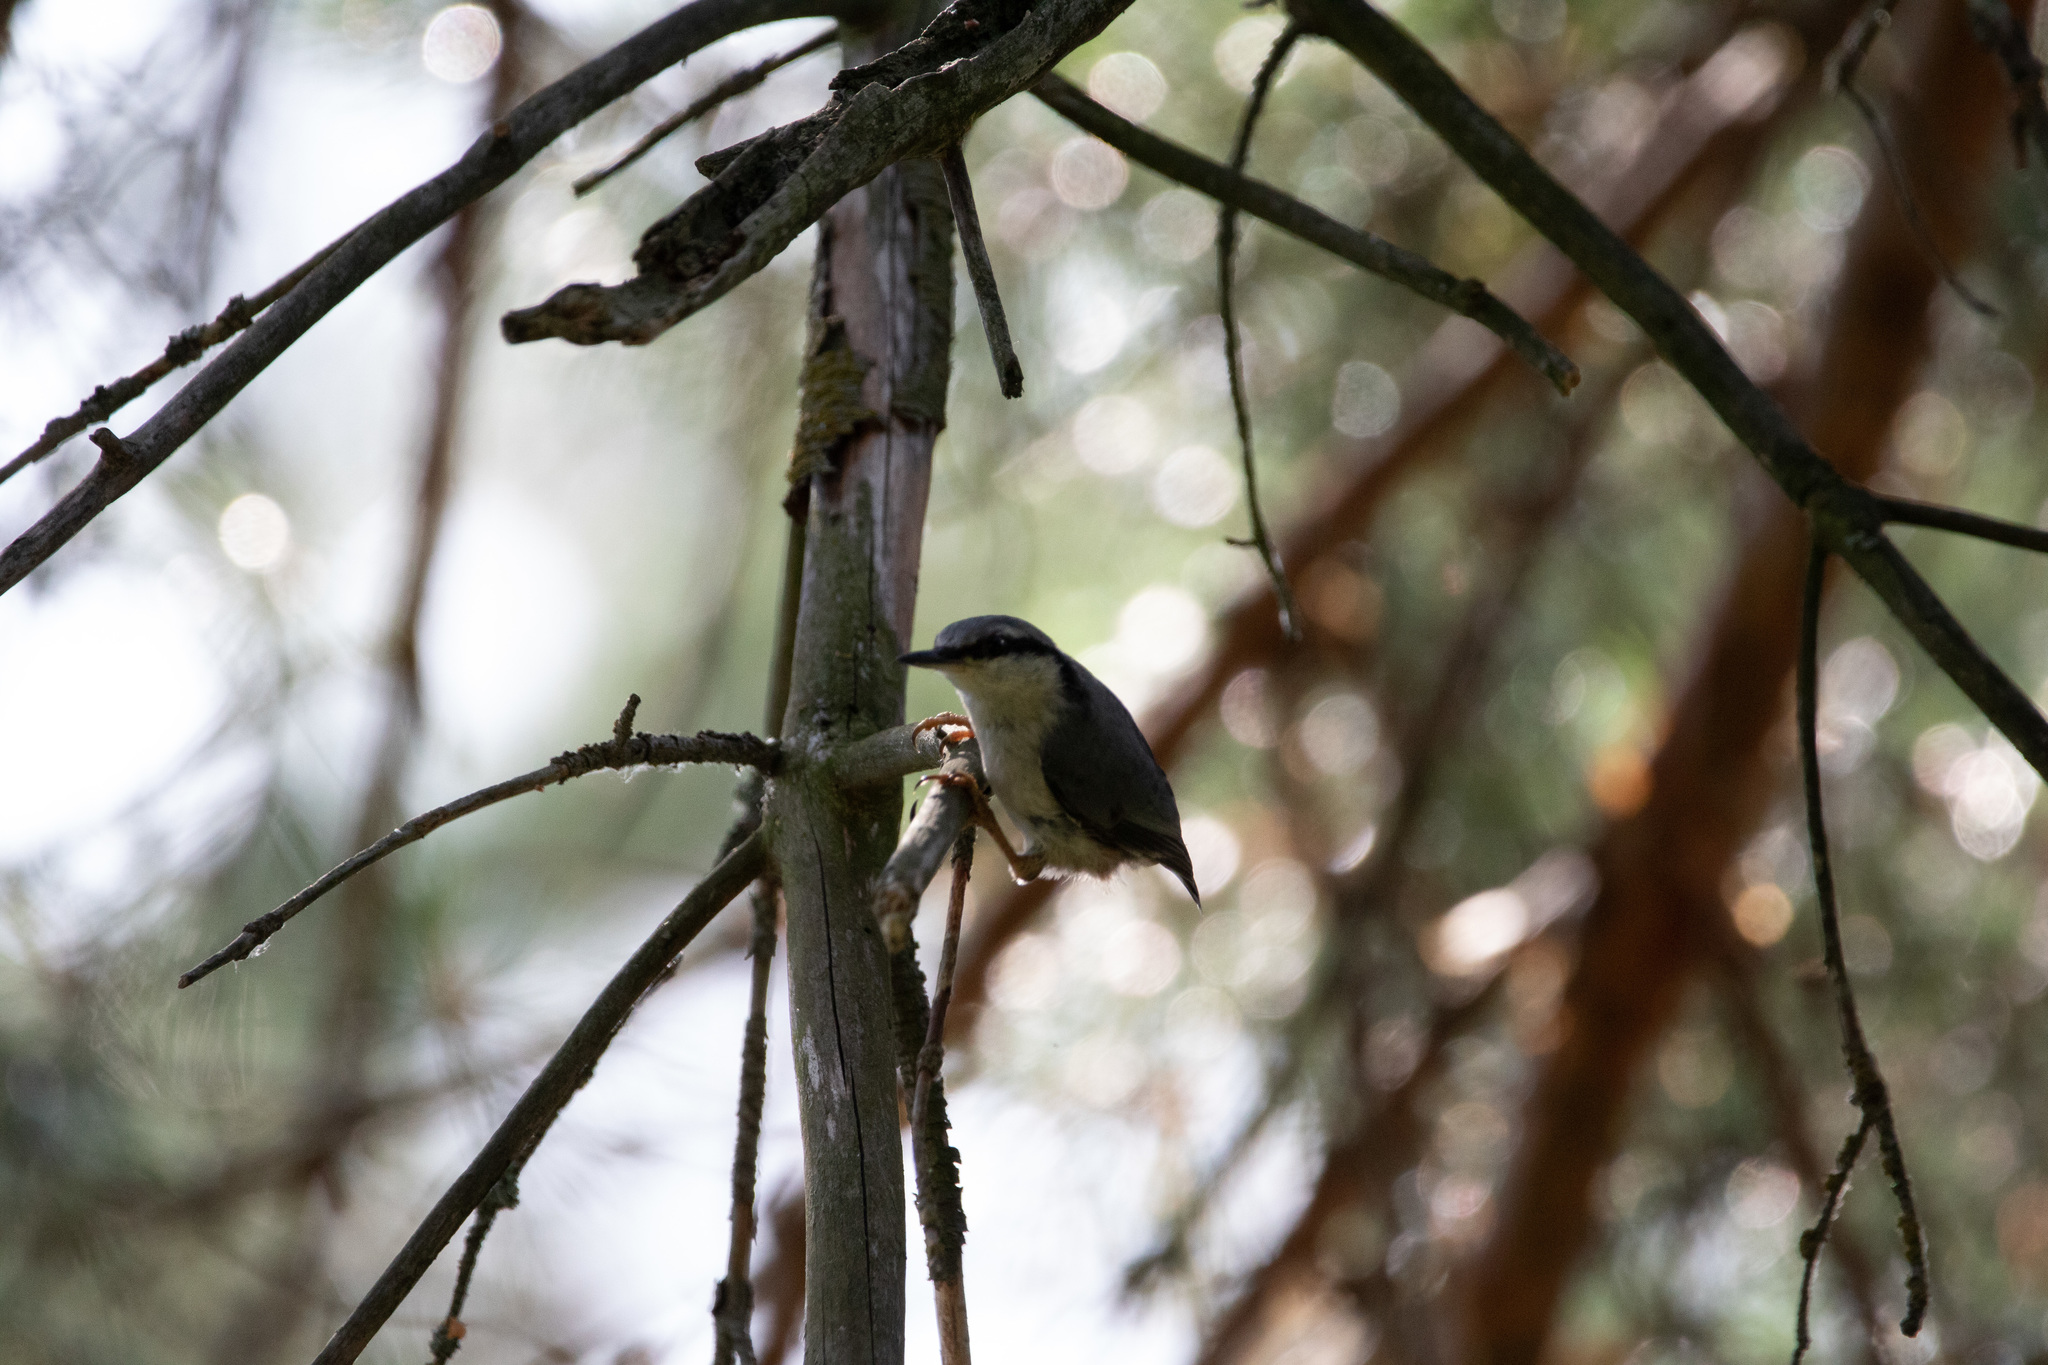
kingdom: Animalia
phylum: Chordata
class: Aves
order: Passeriformes
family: Sittidae
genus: Sitta
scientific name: Sitta europaea
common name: Eurasian nuthatch
